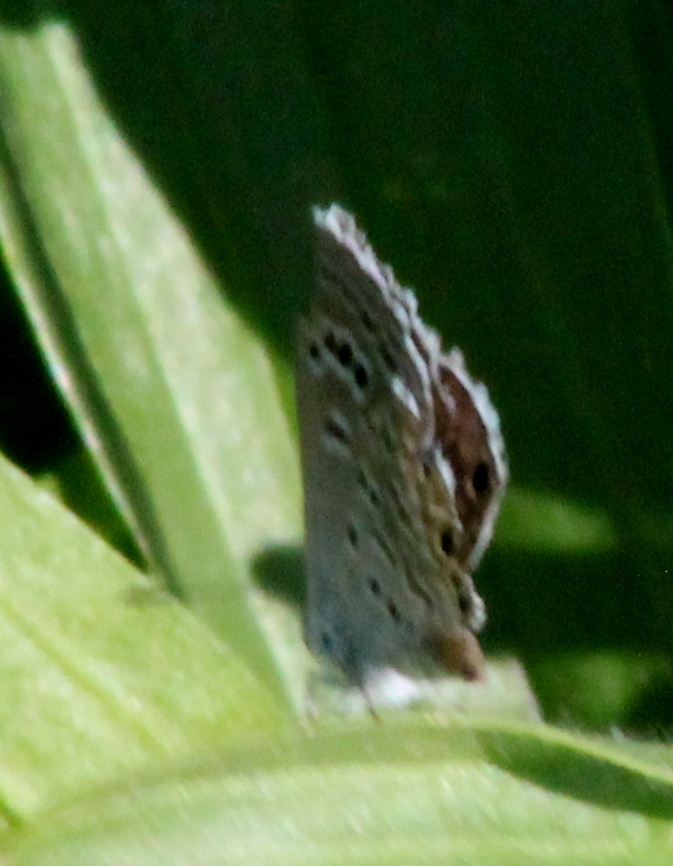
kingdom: Animalia
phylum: Arthropoda
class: Insecta
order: Lepidoptera
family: Lycaenidae
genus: Echinargus
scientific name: Echinargus isola
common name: Reakirt's blue
